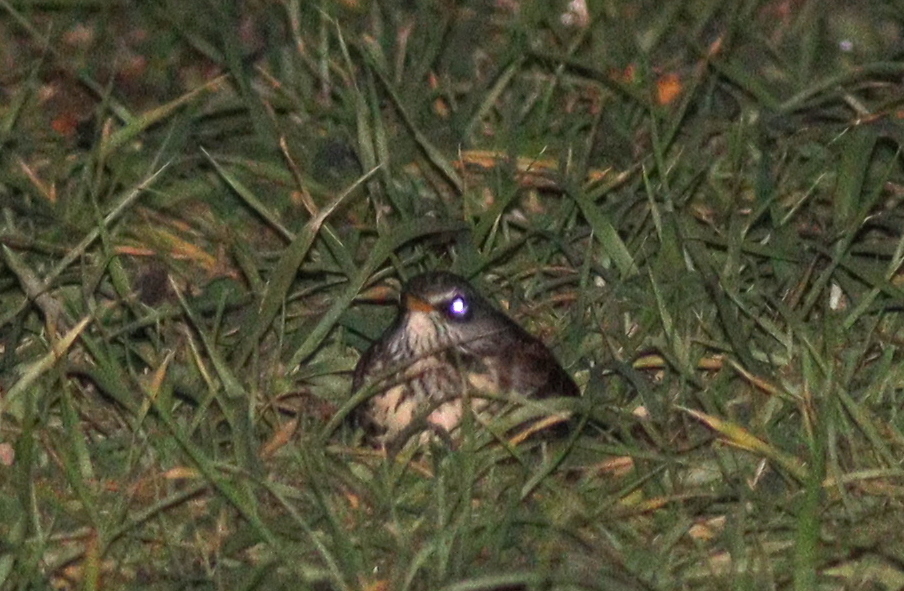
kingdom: Animalia
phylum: Chordata
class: Aves
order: Passeriformes
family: Turdidae
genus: Turdus
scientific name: Turdus pilaris
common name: Fieldfare
